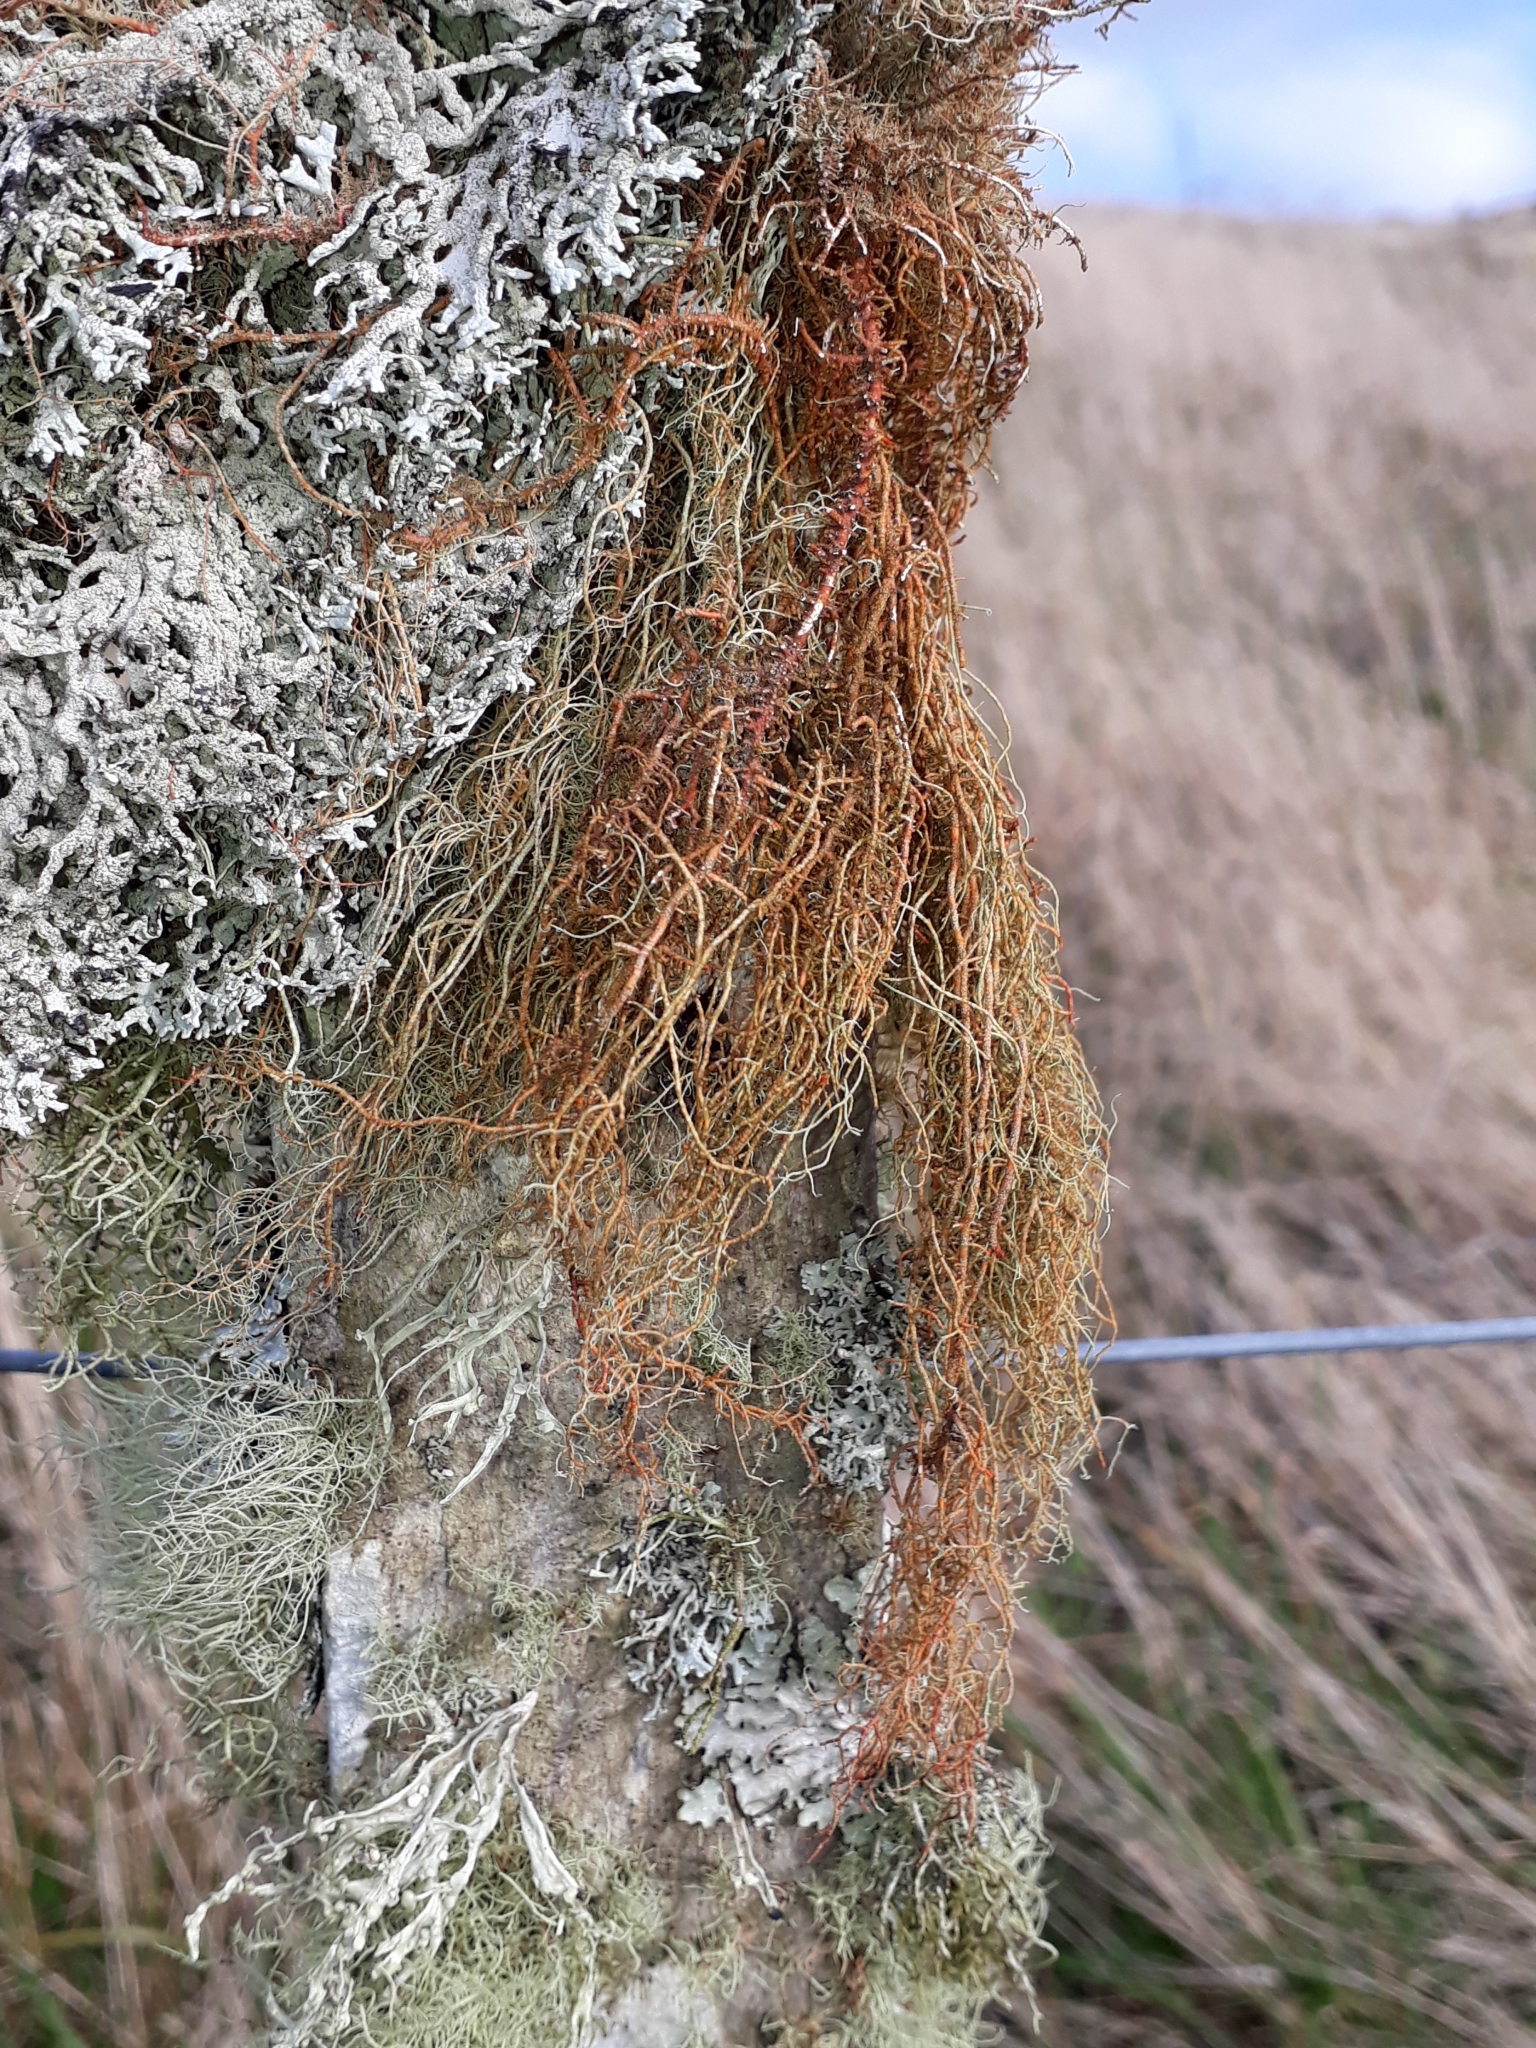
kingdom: Fungi
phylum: Ascomycota
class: Lecanoromycetes
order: Lecanorales
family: Parmeliaceae
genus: Usnea
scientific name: Usnea rubicunda
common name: Red beard lichen
